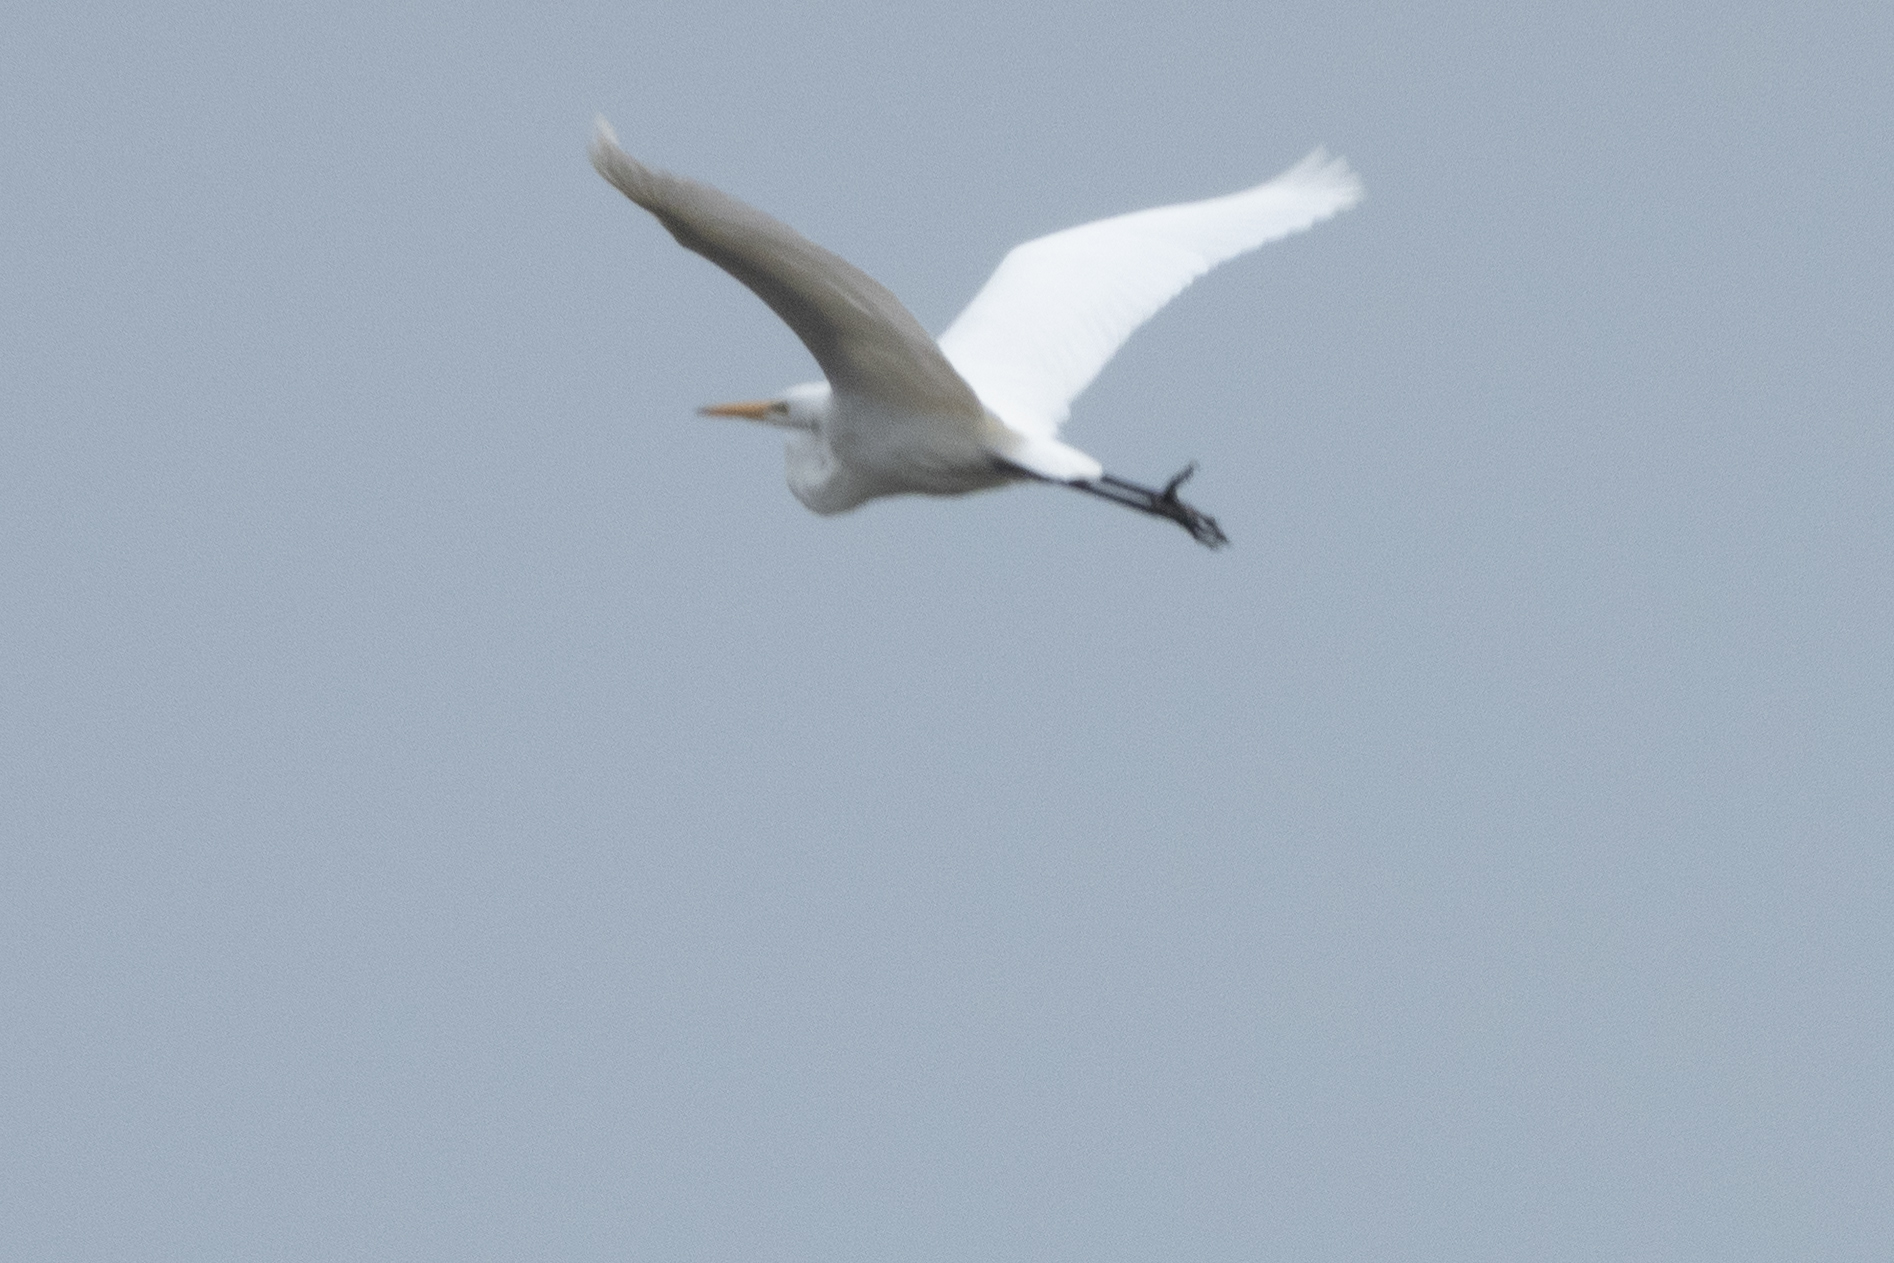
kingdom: Animalia
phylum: Chordata
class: Aves
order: Pelecaniformes
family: Ardeidae
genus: Ardea
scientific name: Ardea modesta
